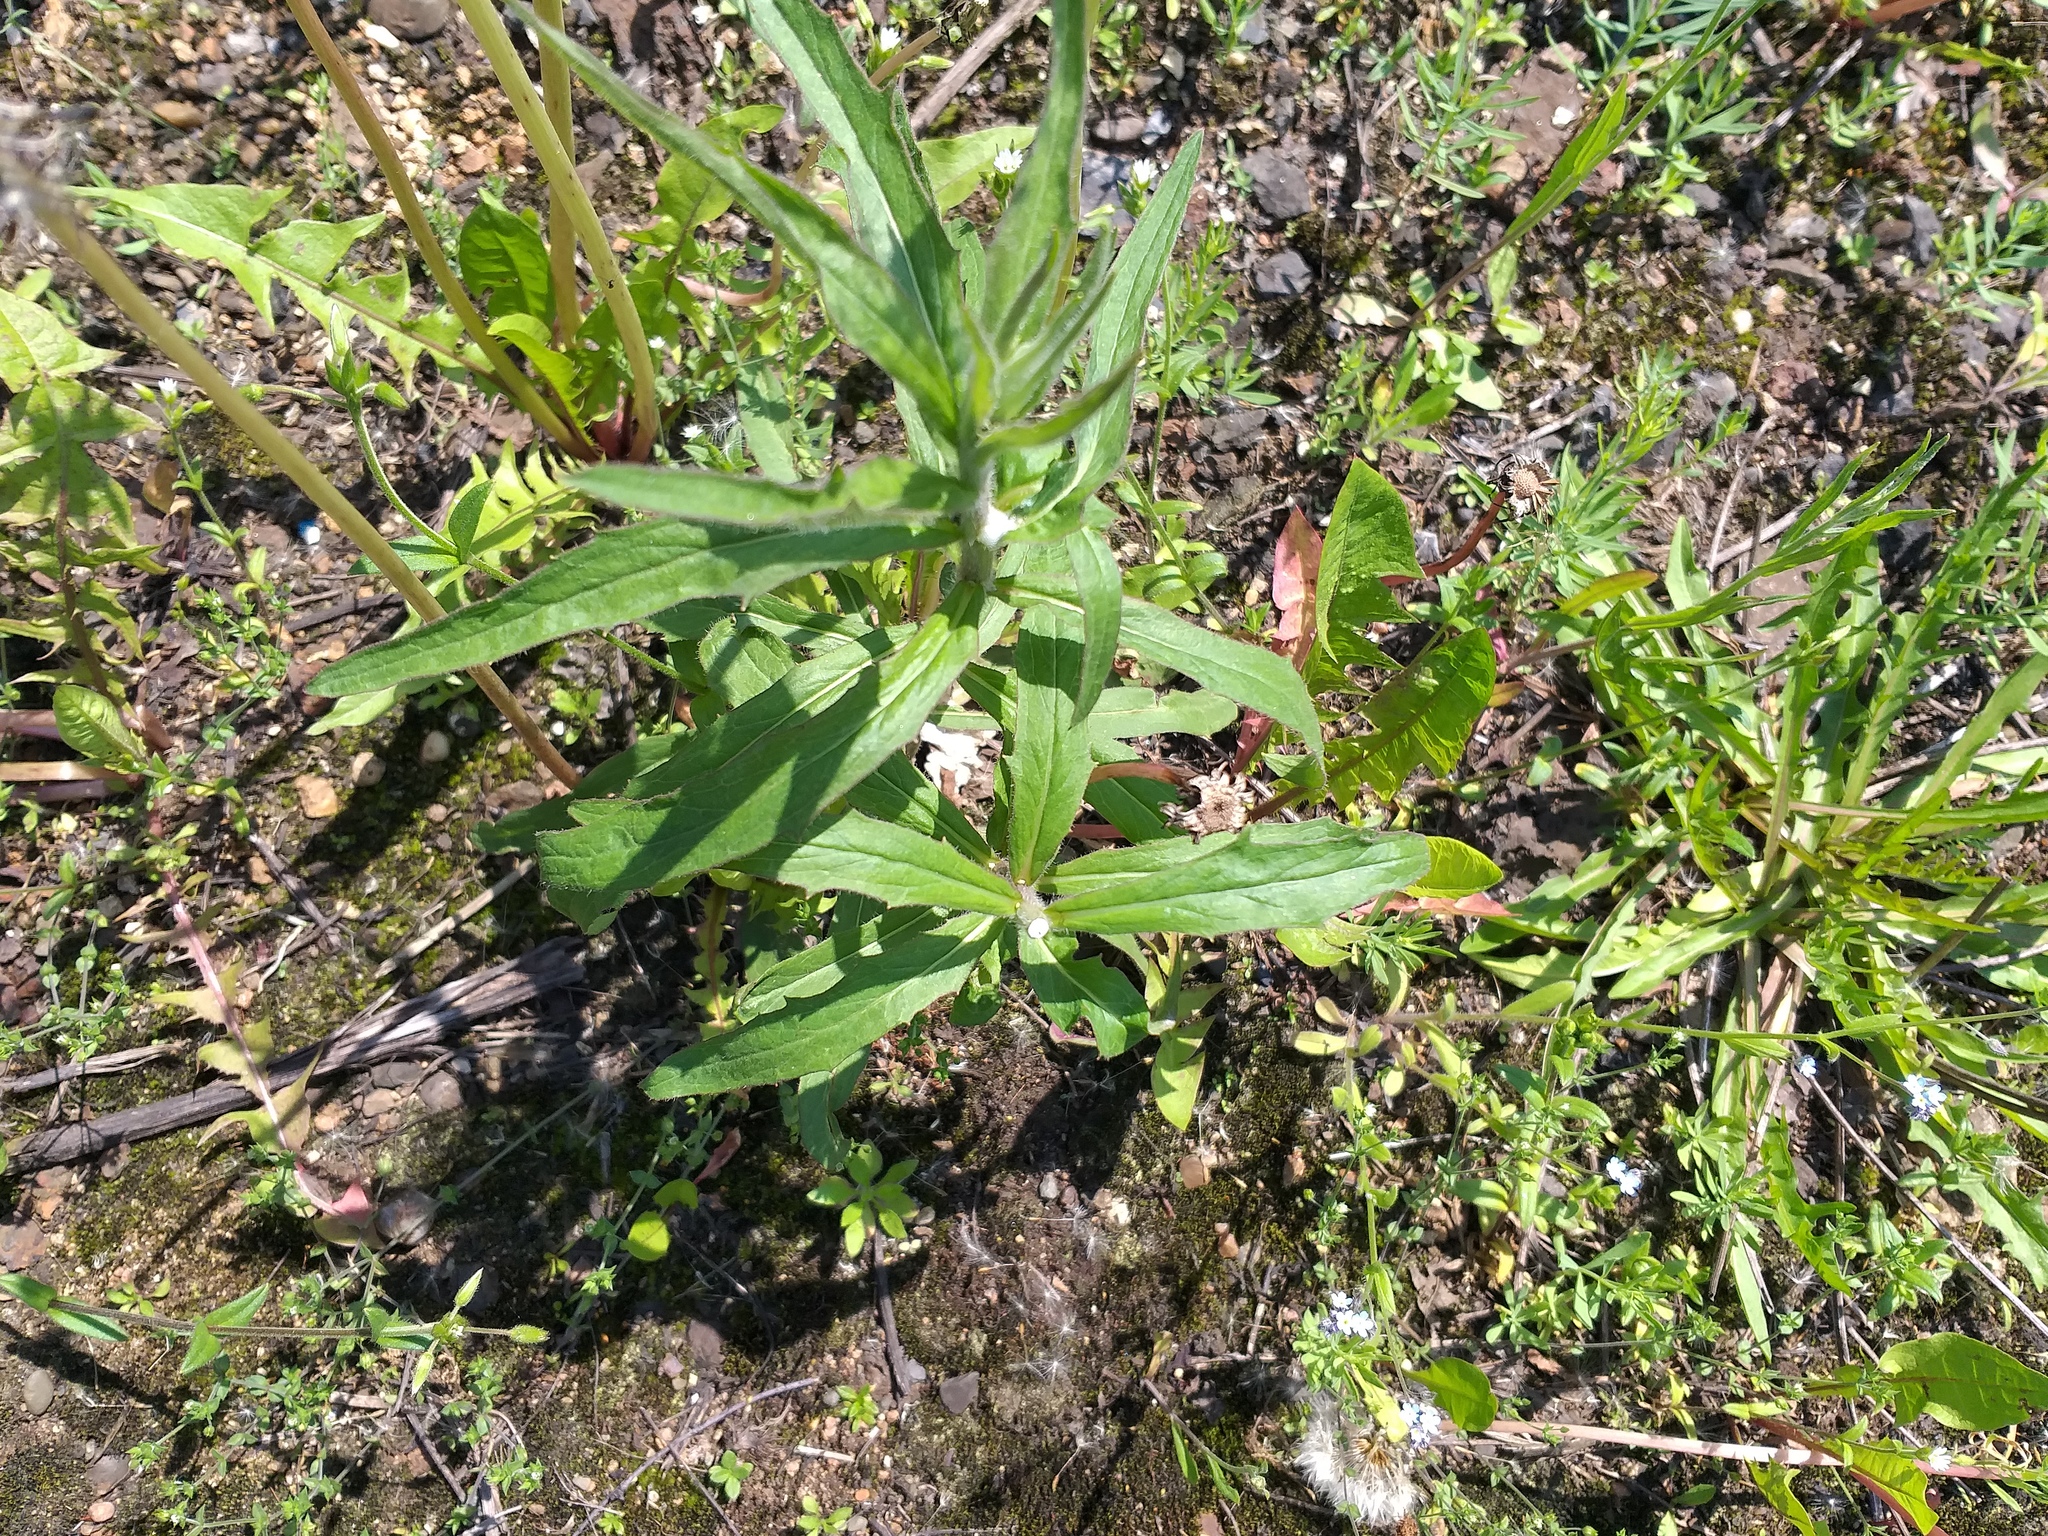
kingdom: Plantae
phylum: Tracheophyta
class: Magnoliopsida
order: Asterales
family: Asteraceae
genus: Hieracium
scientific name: Hieracium umbellatum
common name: Northern hawkweed
